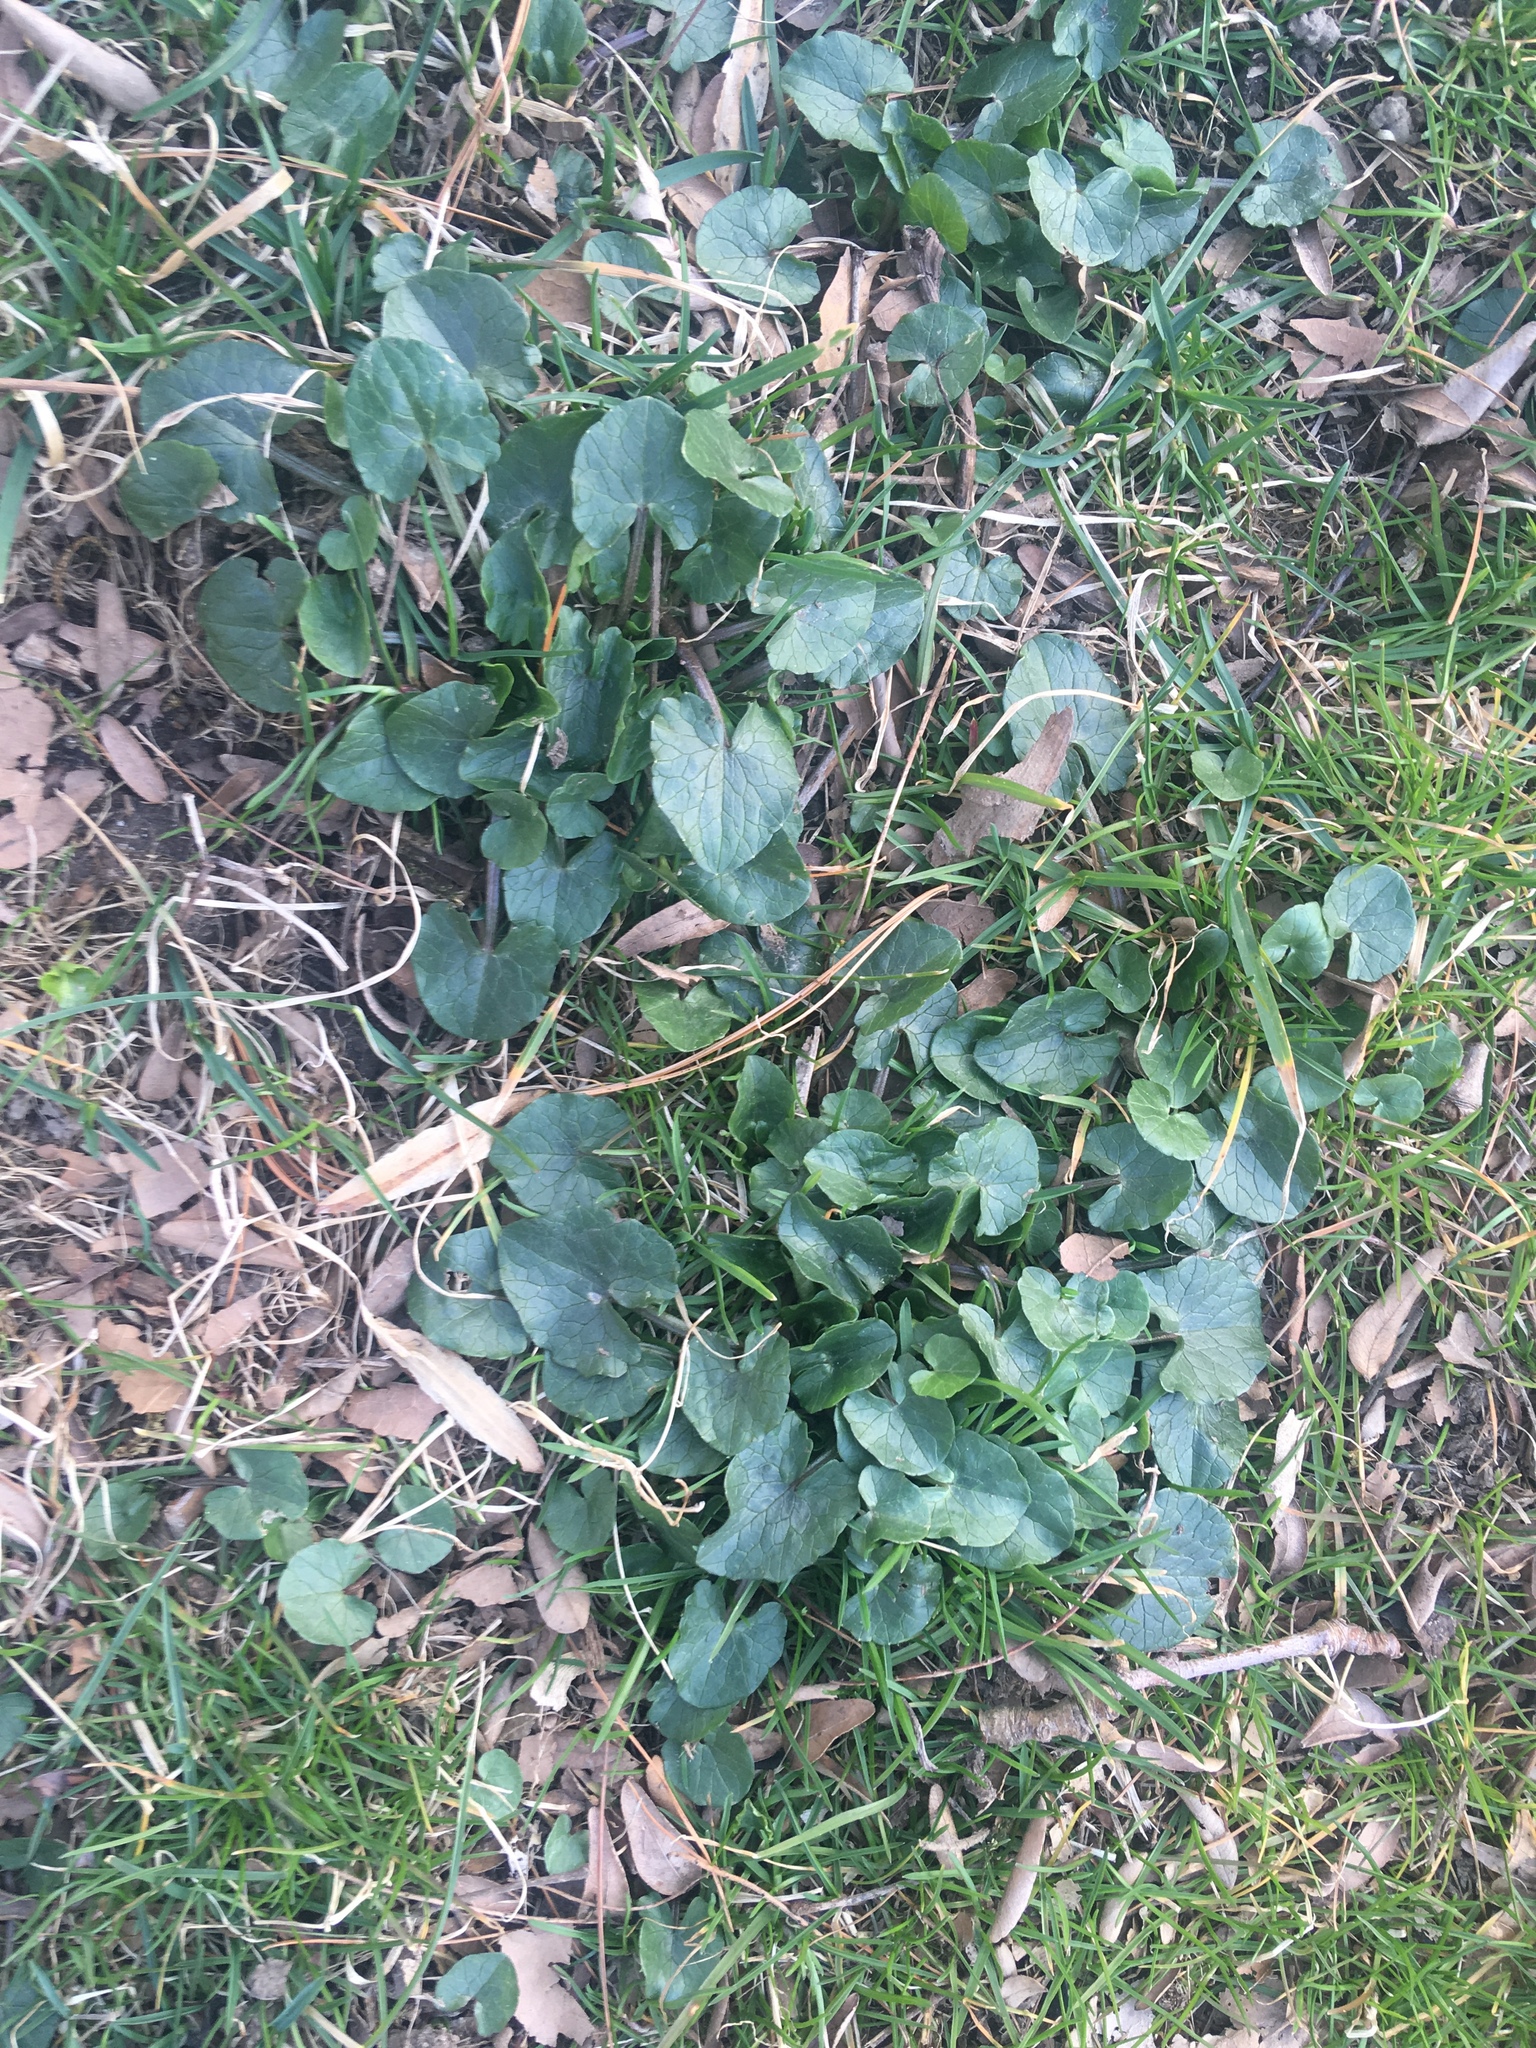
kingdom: Plantae
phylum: Tracheophyta
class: Magnoliopsida
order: Ranunculales
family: Ranunculaceae
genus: Ficaria
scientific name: Ficaria verna
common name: Lesser celandine
